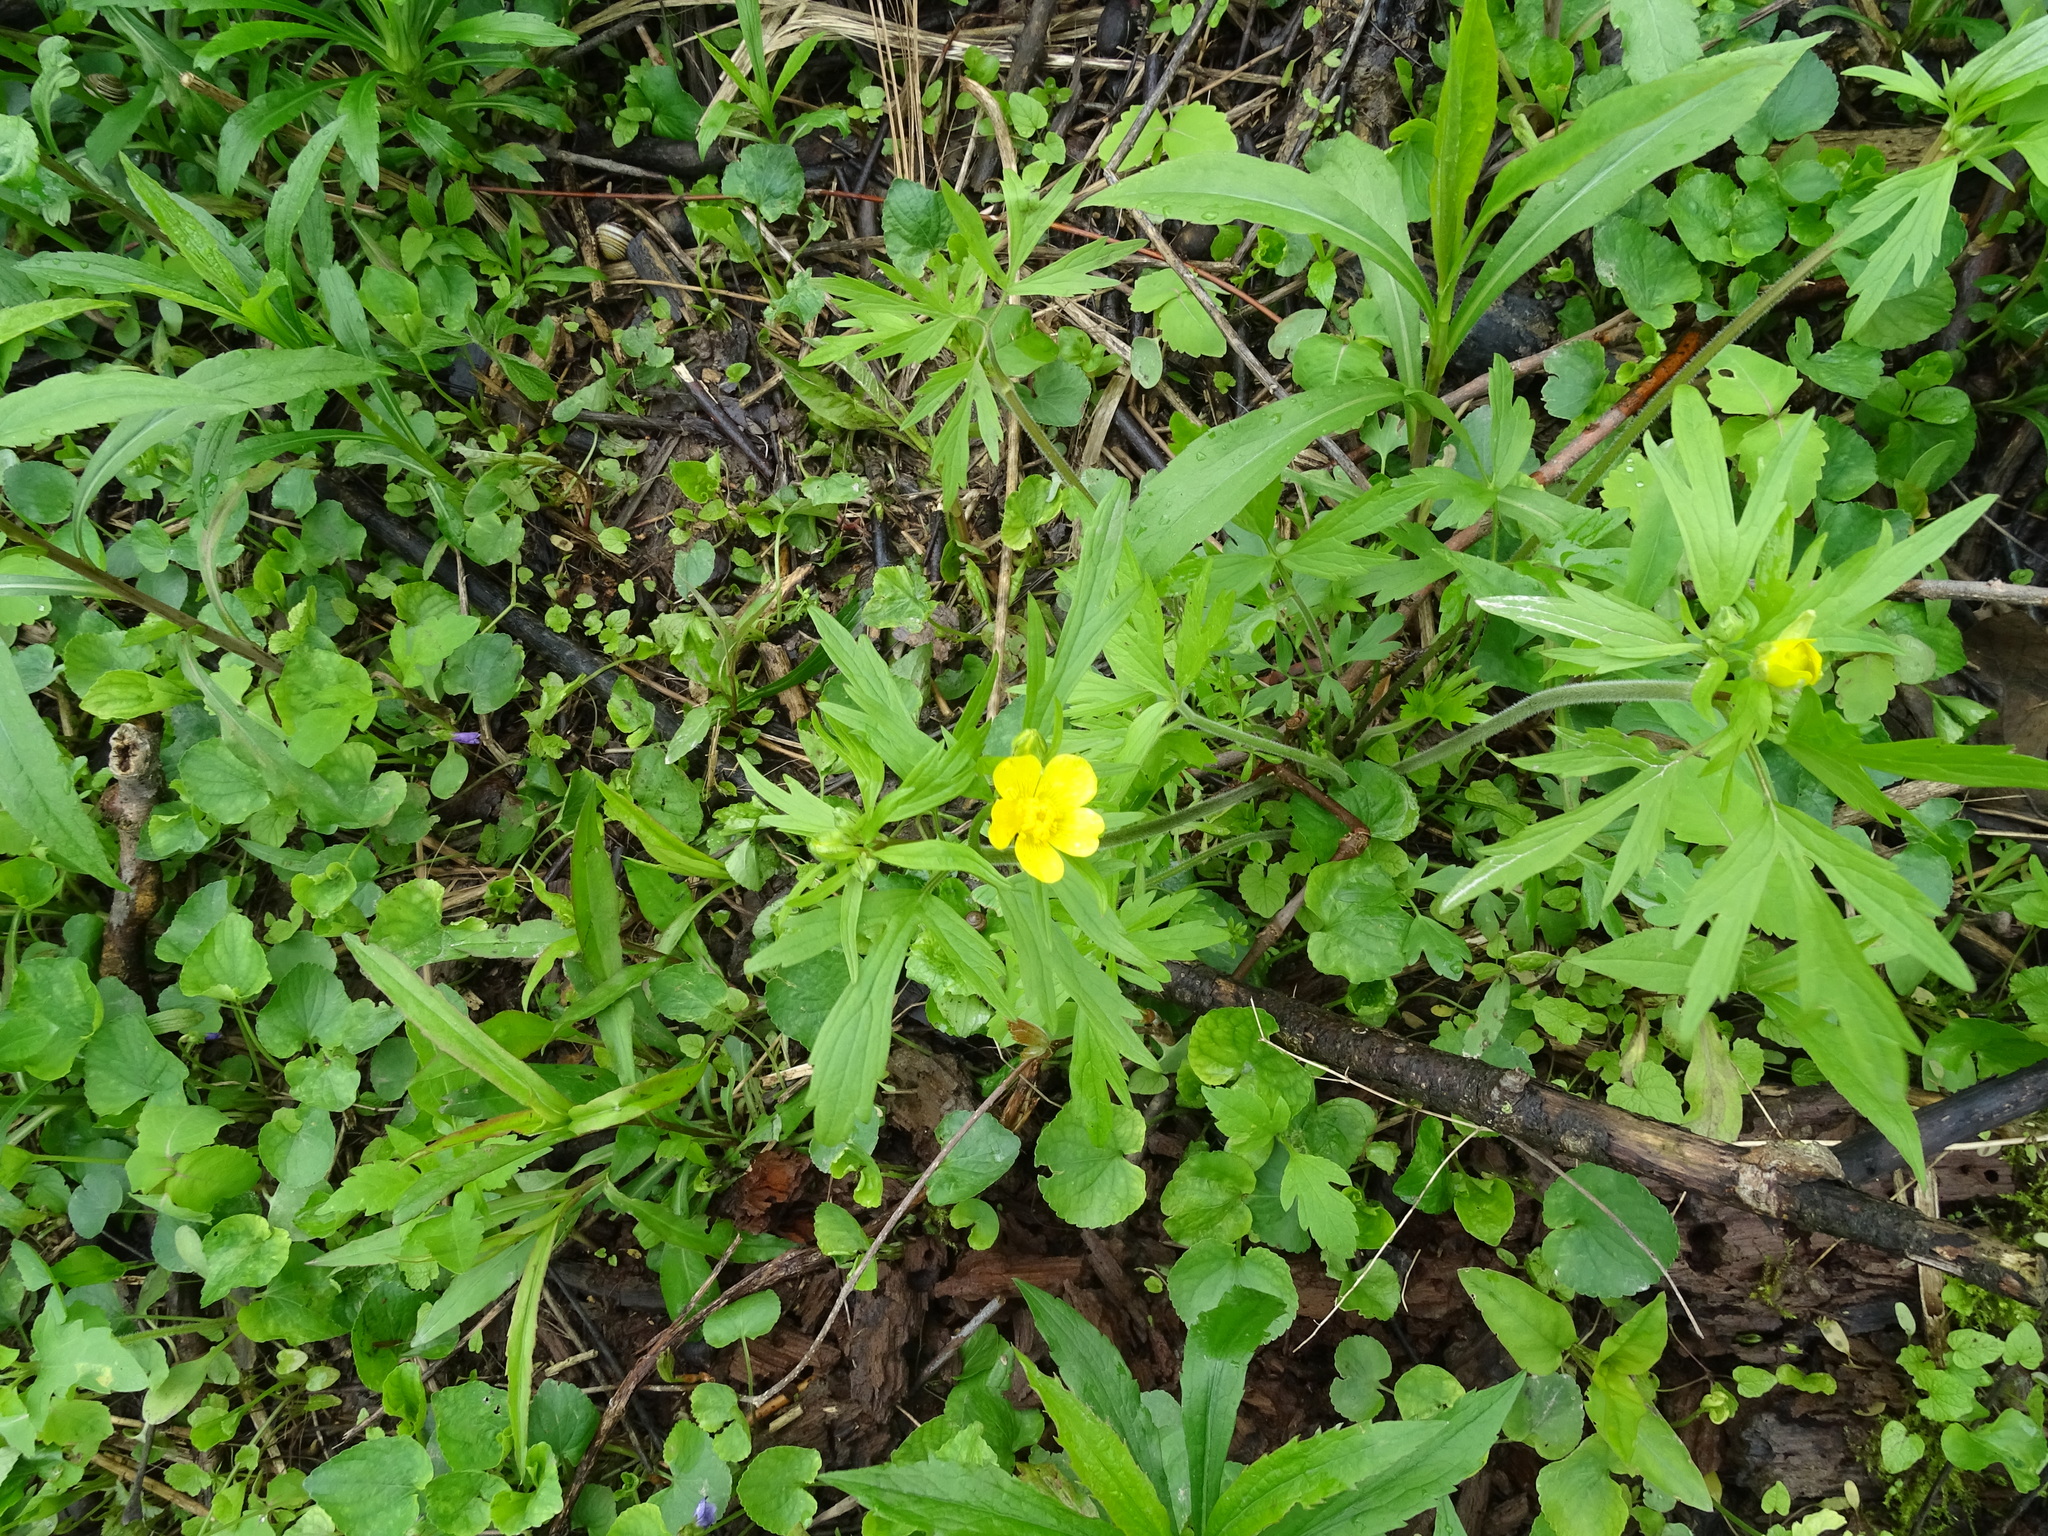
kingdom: Plantae
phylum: Tracheophyta
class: Magnoliopsida
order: Ranunculales
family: Ranunculaceae
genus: Ranunculus
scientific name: Ranunculus hispidus
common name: Bristly buttercup
